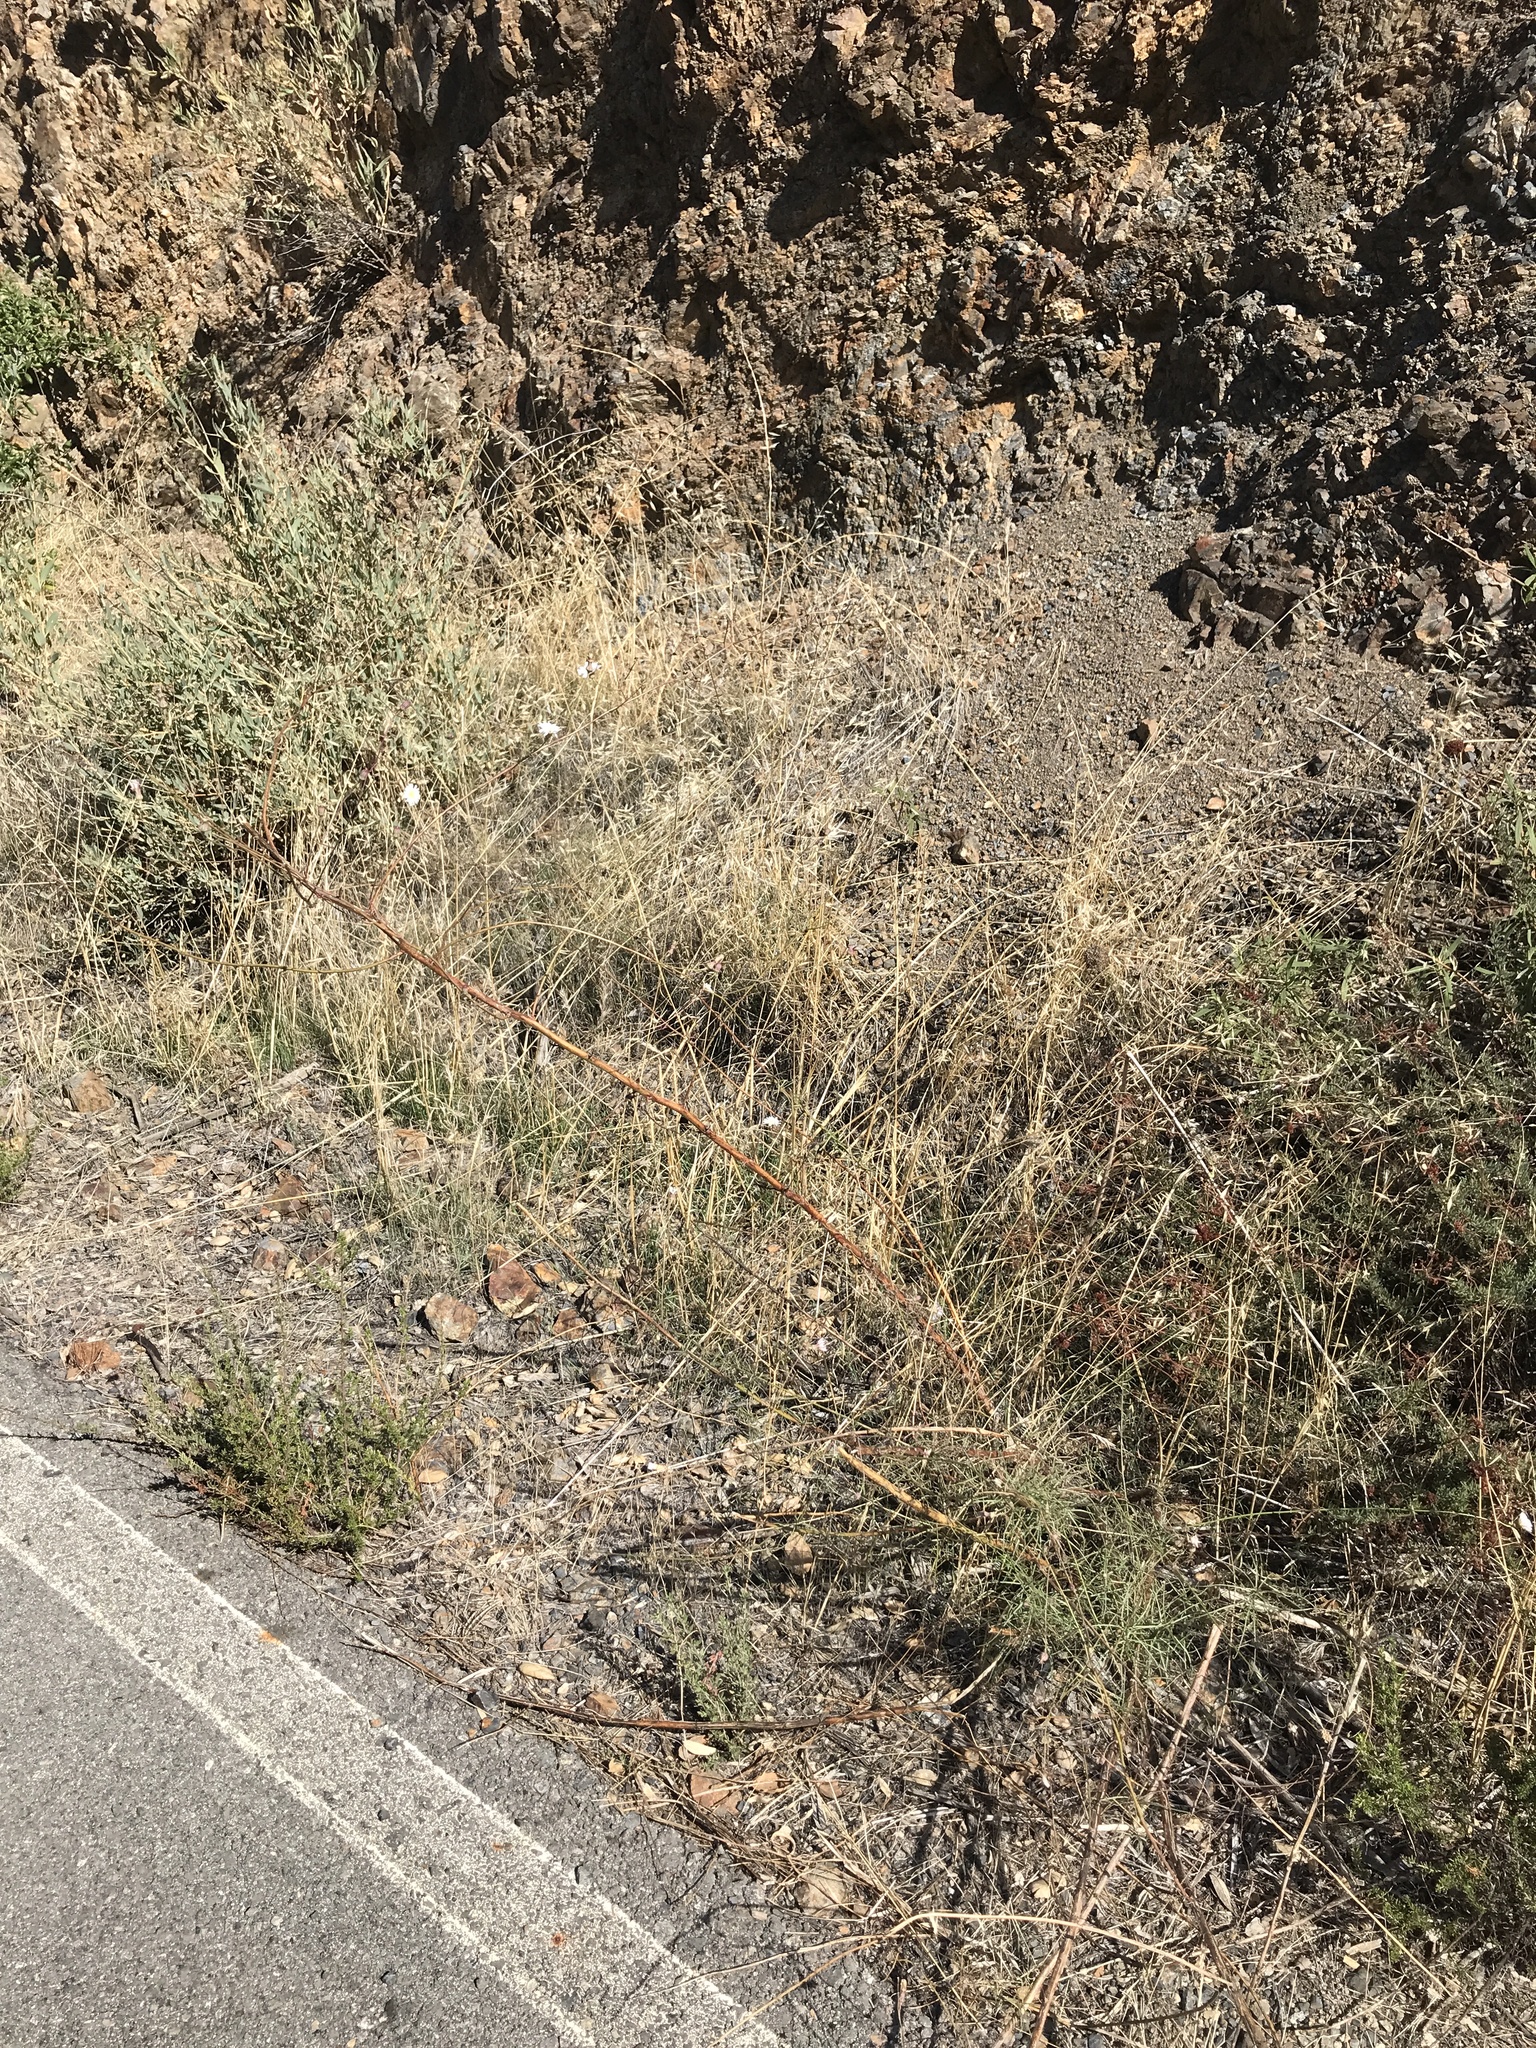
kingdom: Plantae
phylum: Tracheophyta
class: Magnoliopsida
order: Asterales
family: Asteraceae
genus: Malacothrix
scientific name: Malacothrix saxatilis
